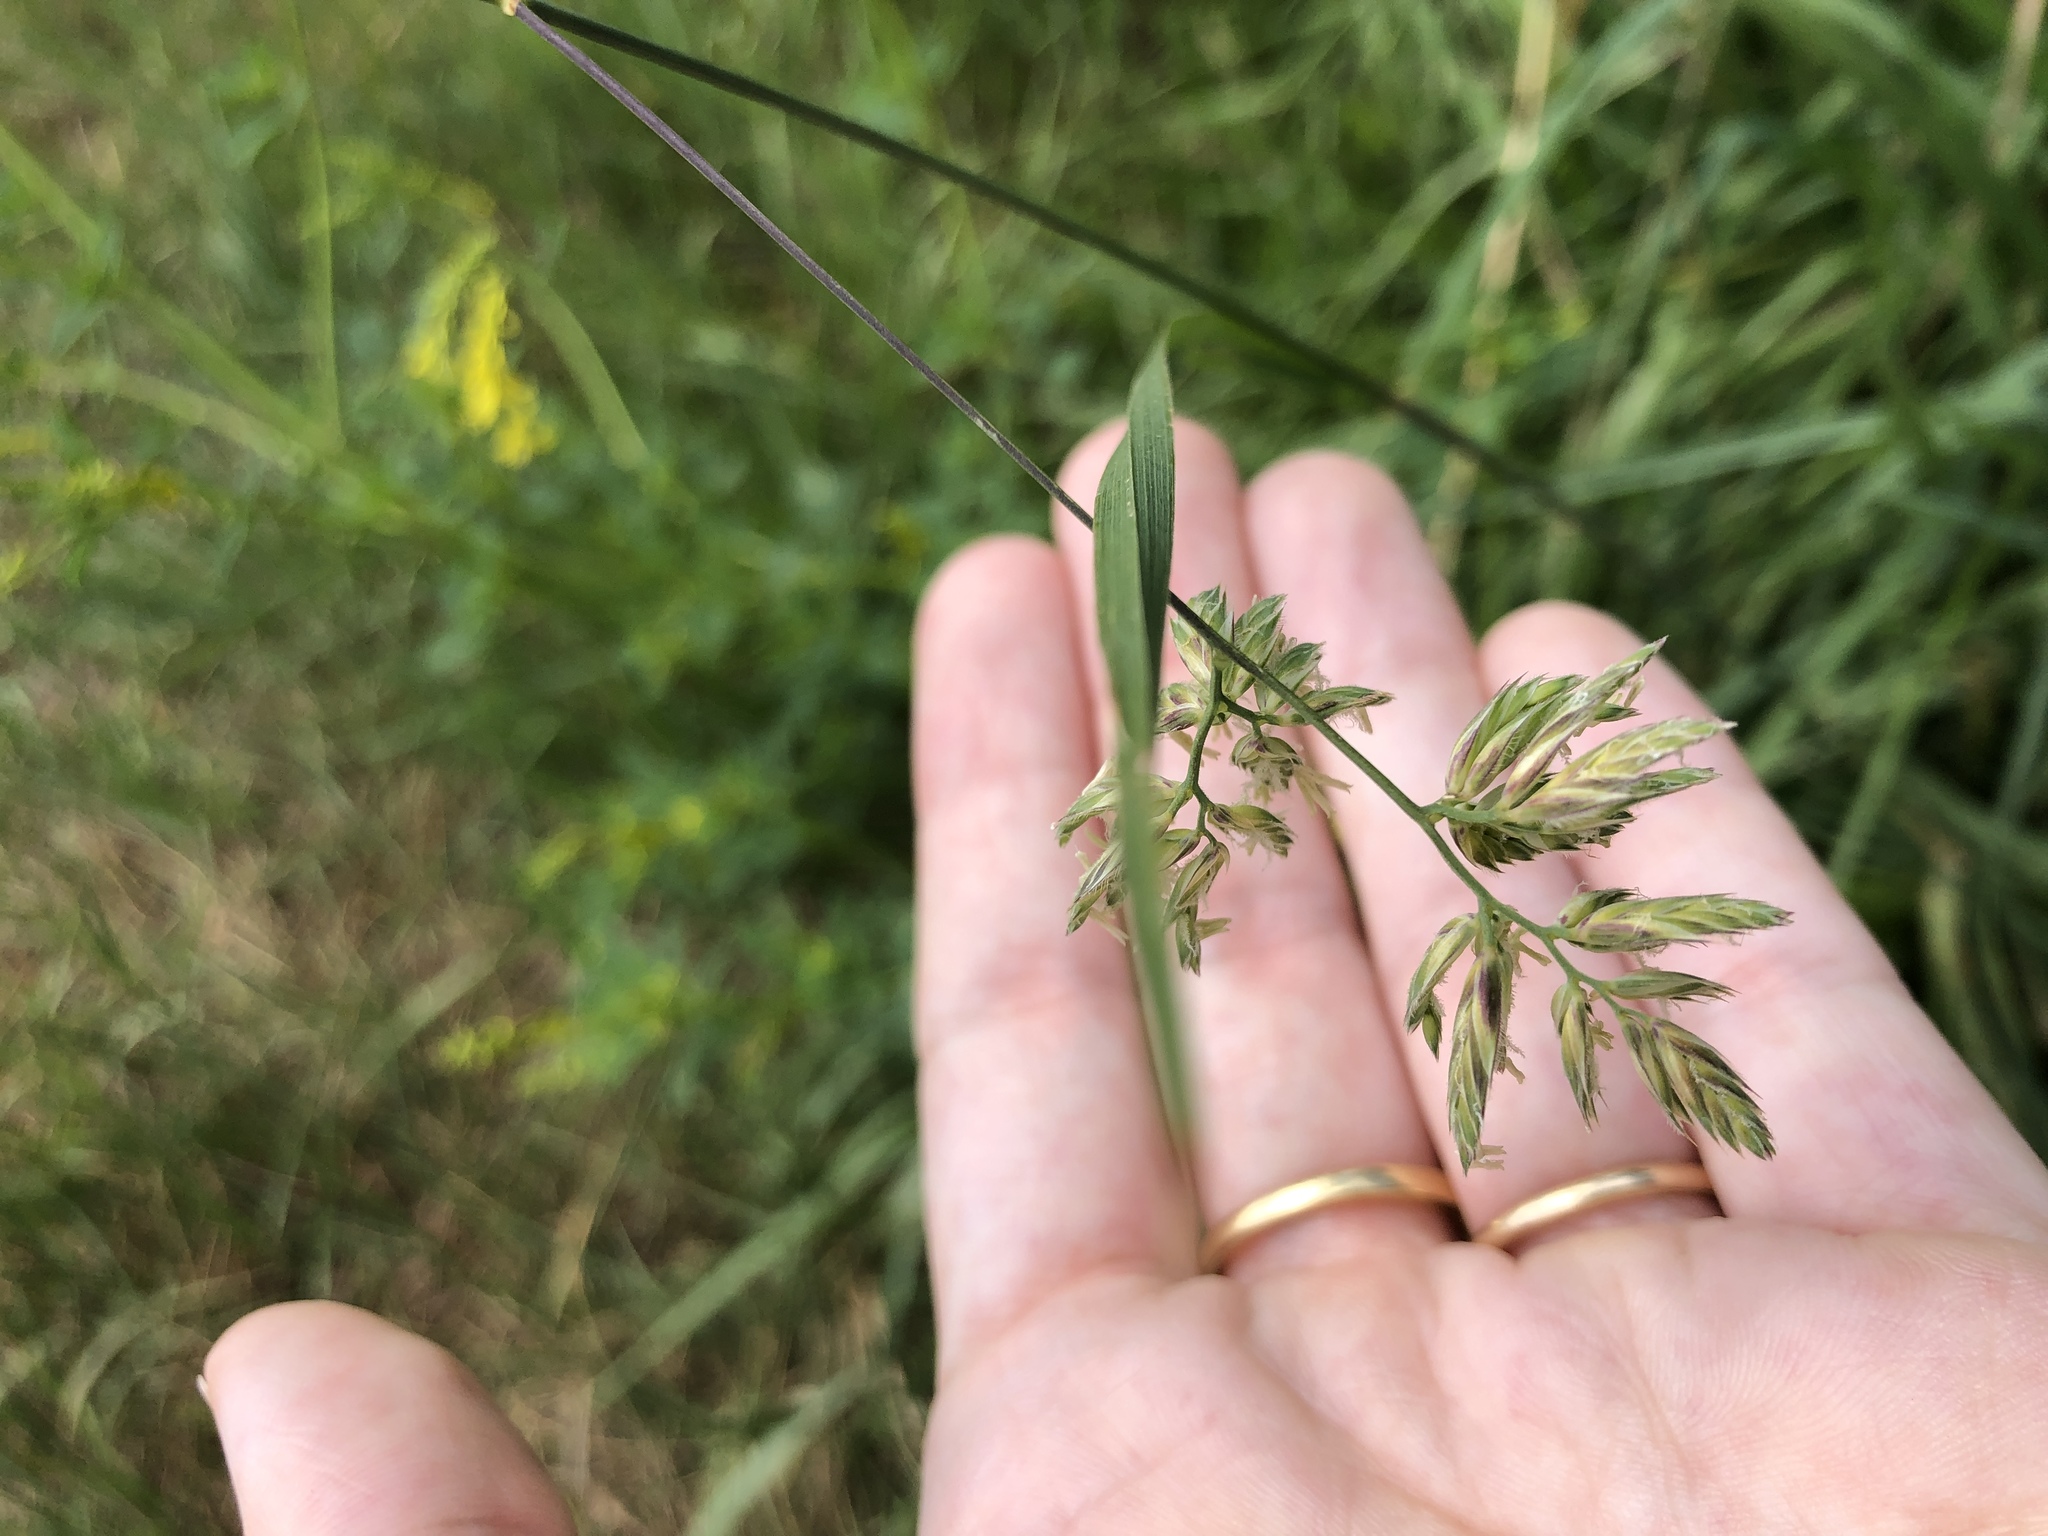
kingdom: Plantae
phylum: Tracheophyta
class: Liliopsida
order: Poales
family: Poaceae
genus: Dactylis
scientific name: Dactylis glomerata
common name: Orchardgrass
